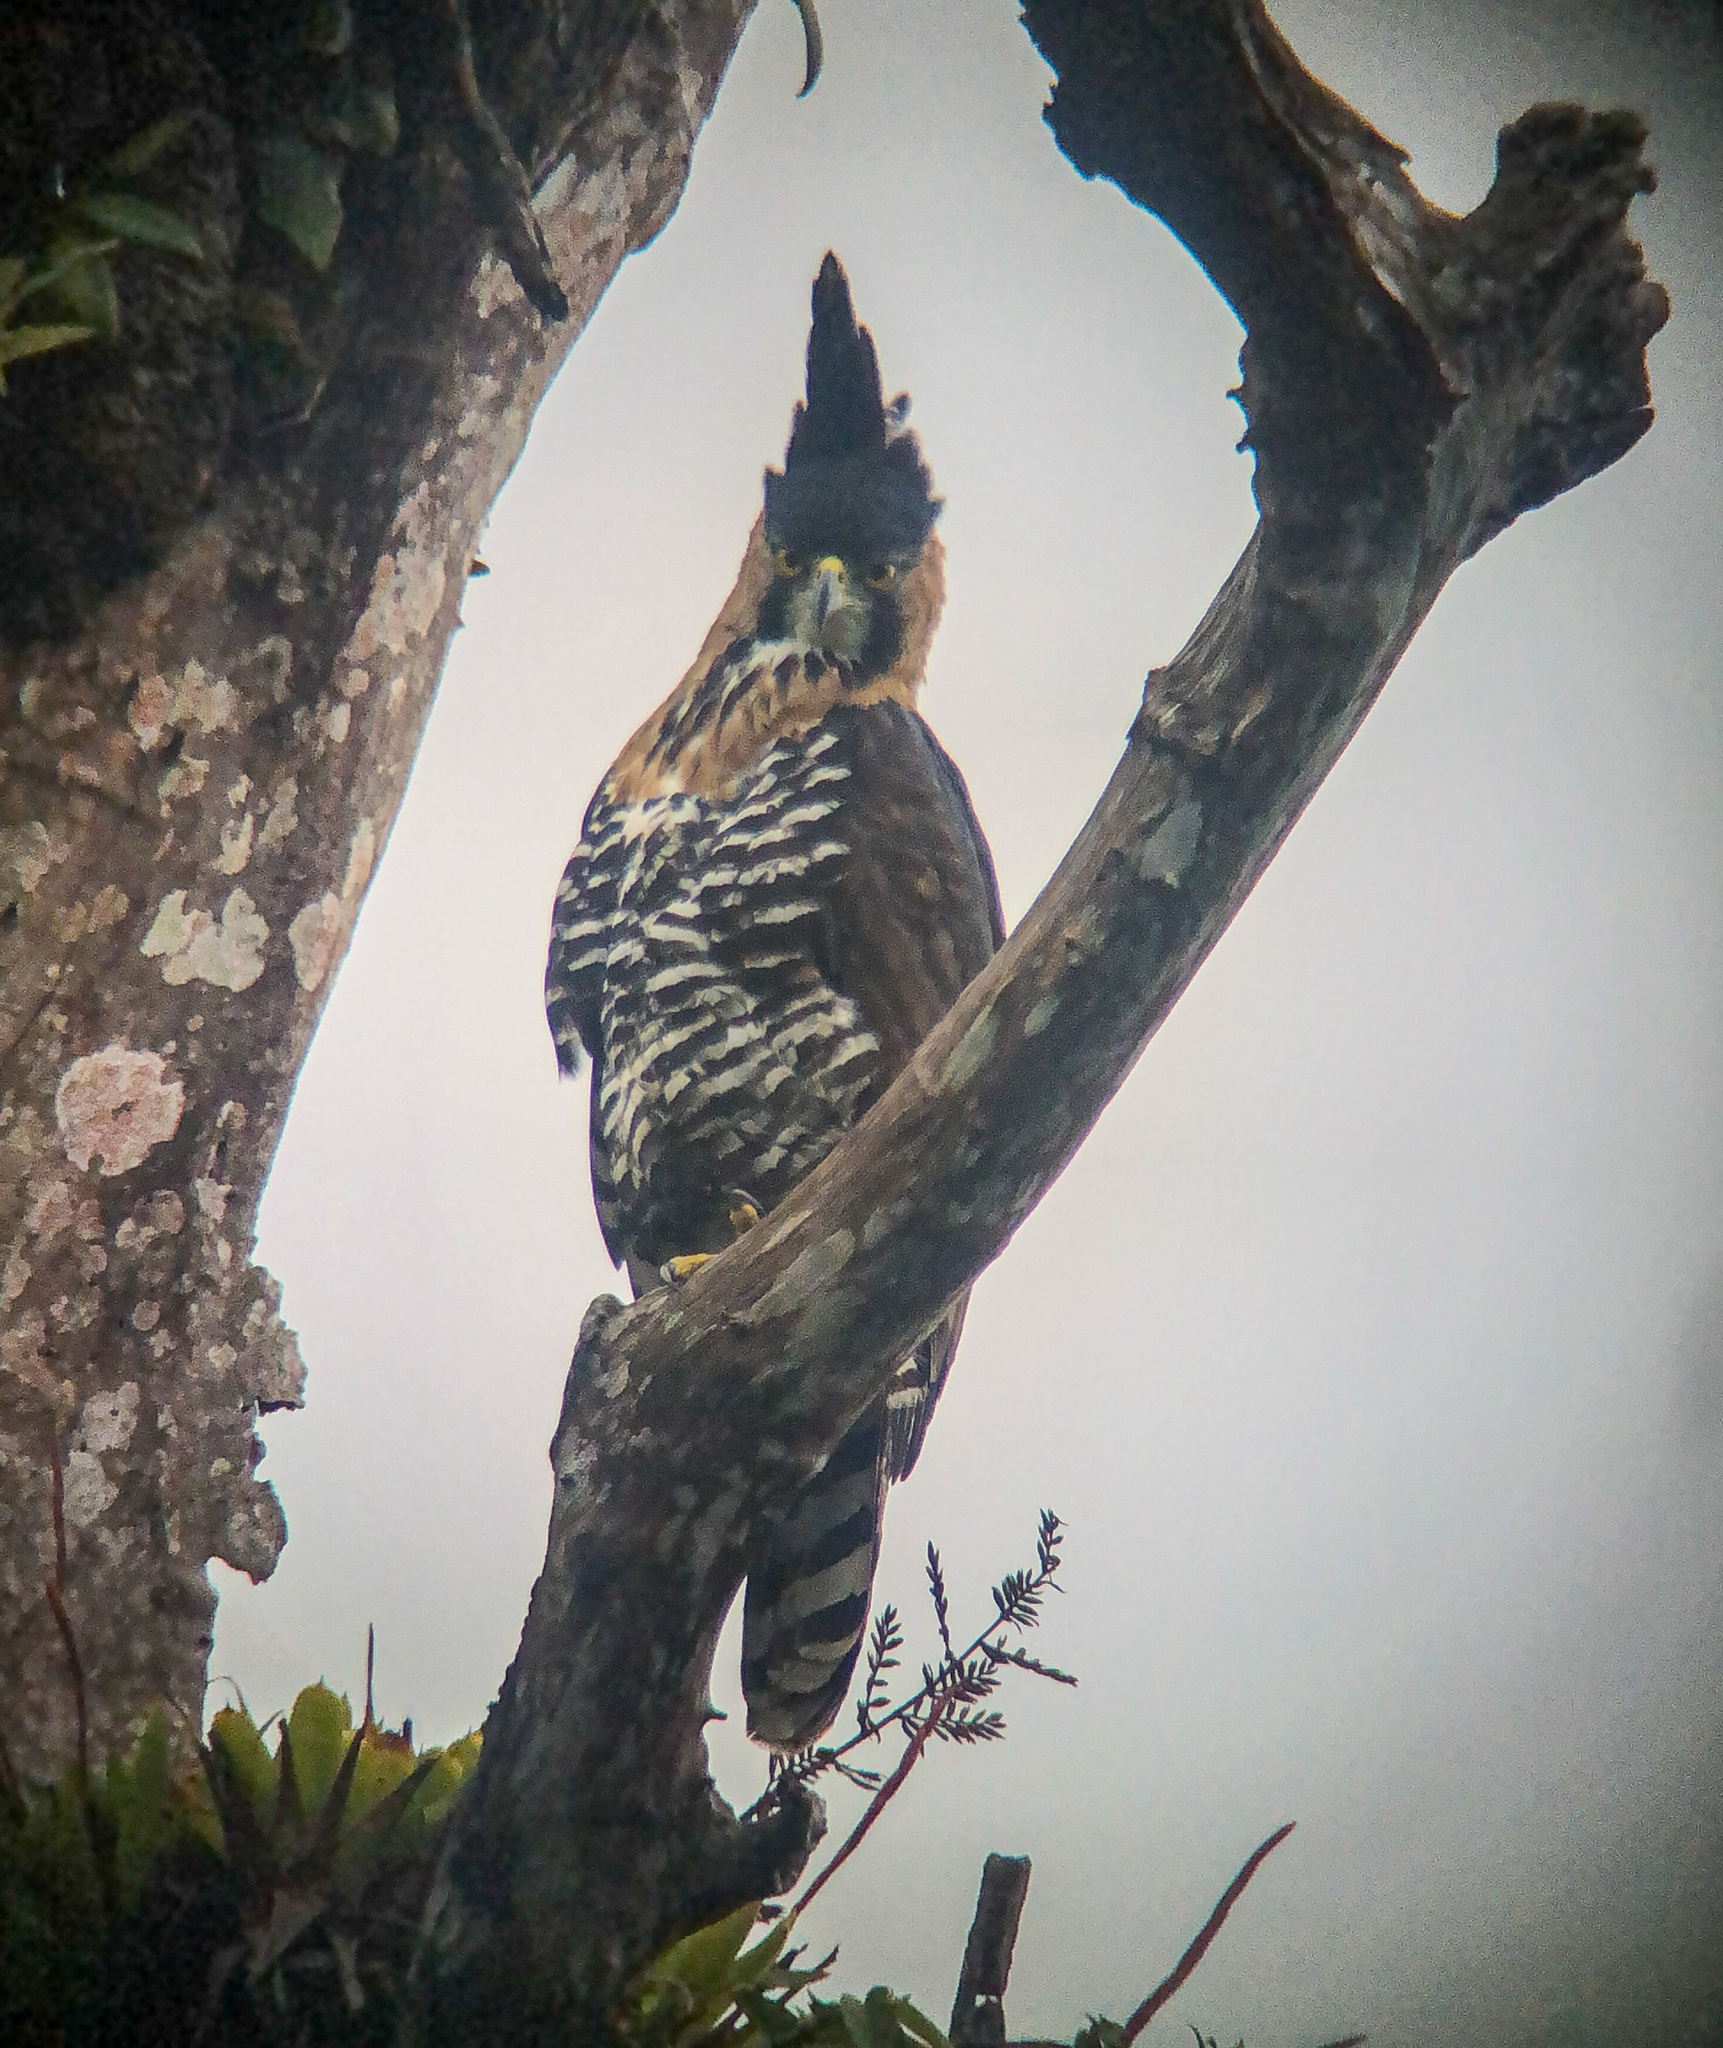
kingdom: Animalia
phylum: Chordata
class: Aves
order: Accipitriformes
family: Accipitridae
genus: Spizaetus
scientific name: Spizaetus ornatus
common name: Ornate hawk-eagle
